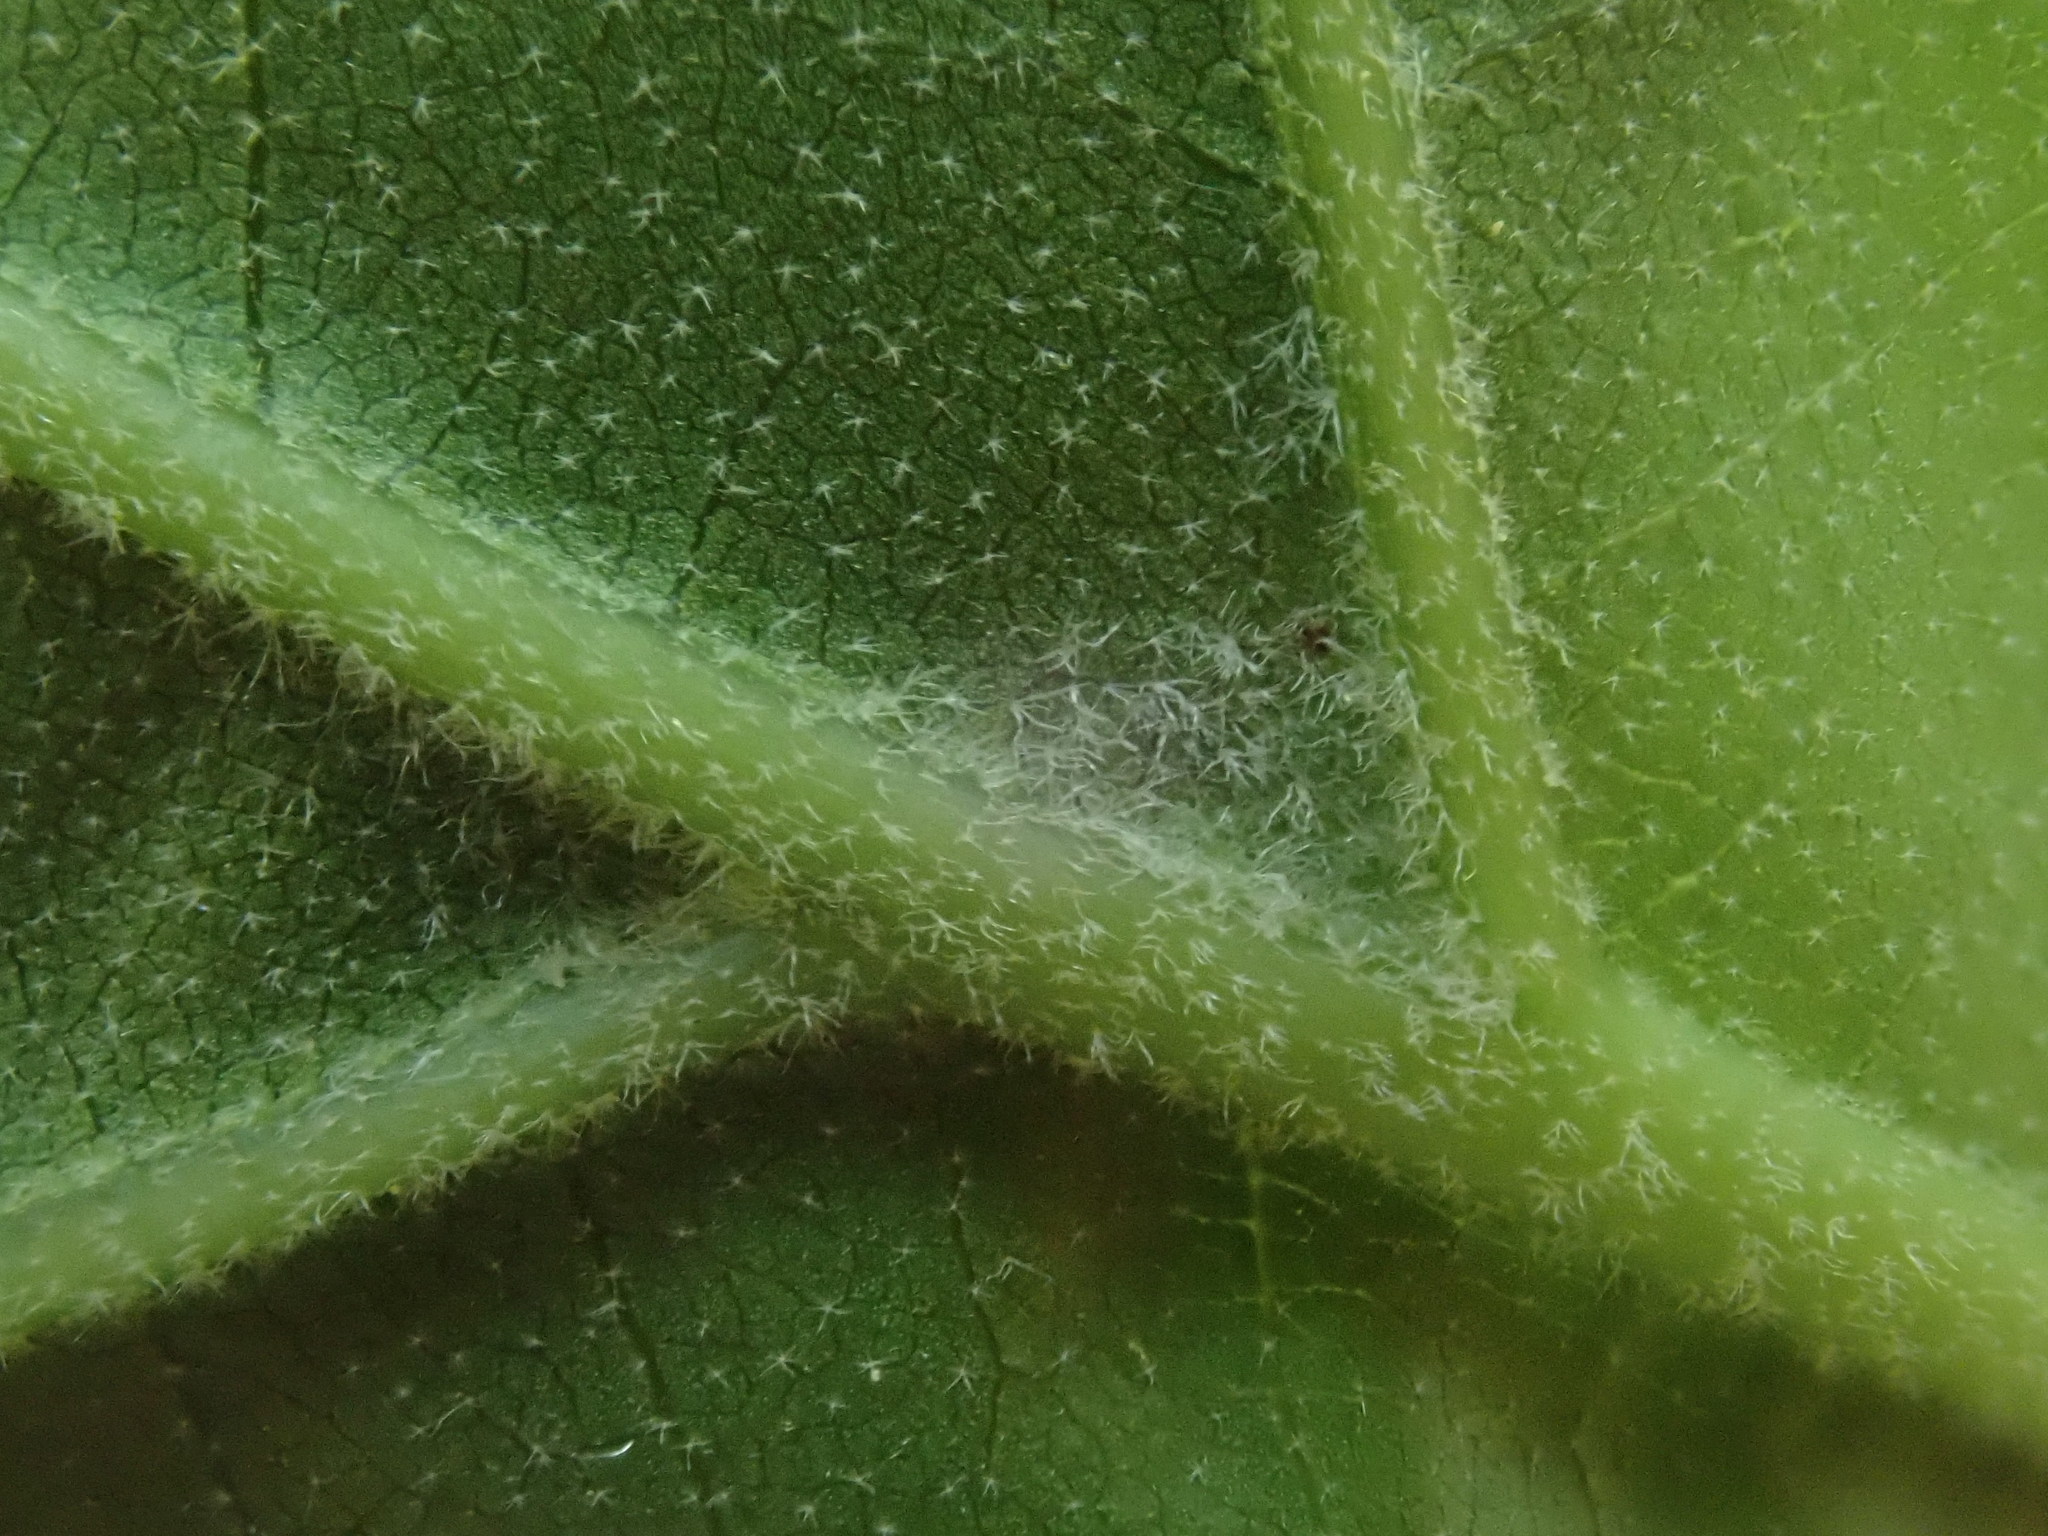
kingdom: Plantae
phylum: Tracheophyta
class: Magnoliopsida
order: Fagales
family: Fagaceae
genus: Quercus
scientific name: Quercus velutina
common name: Black oak
